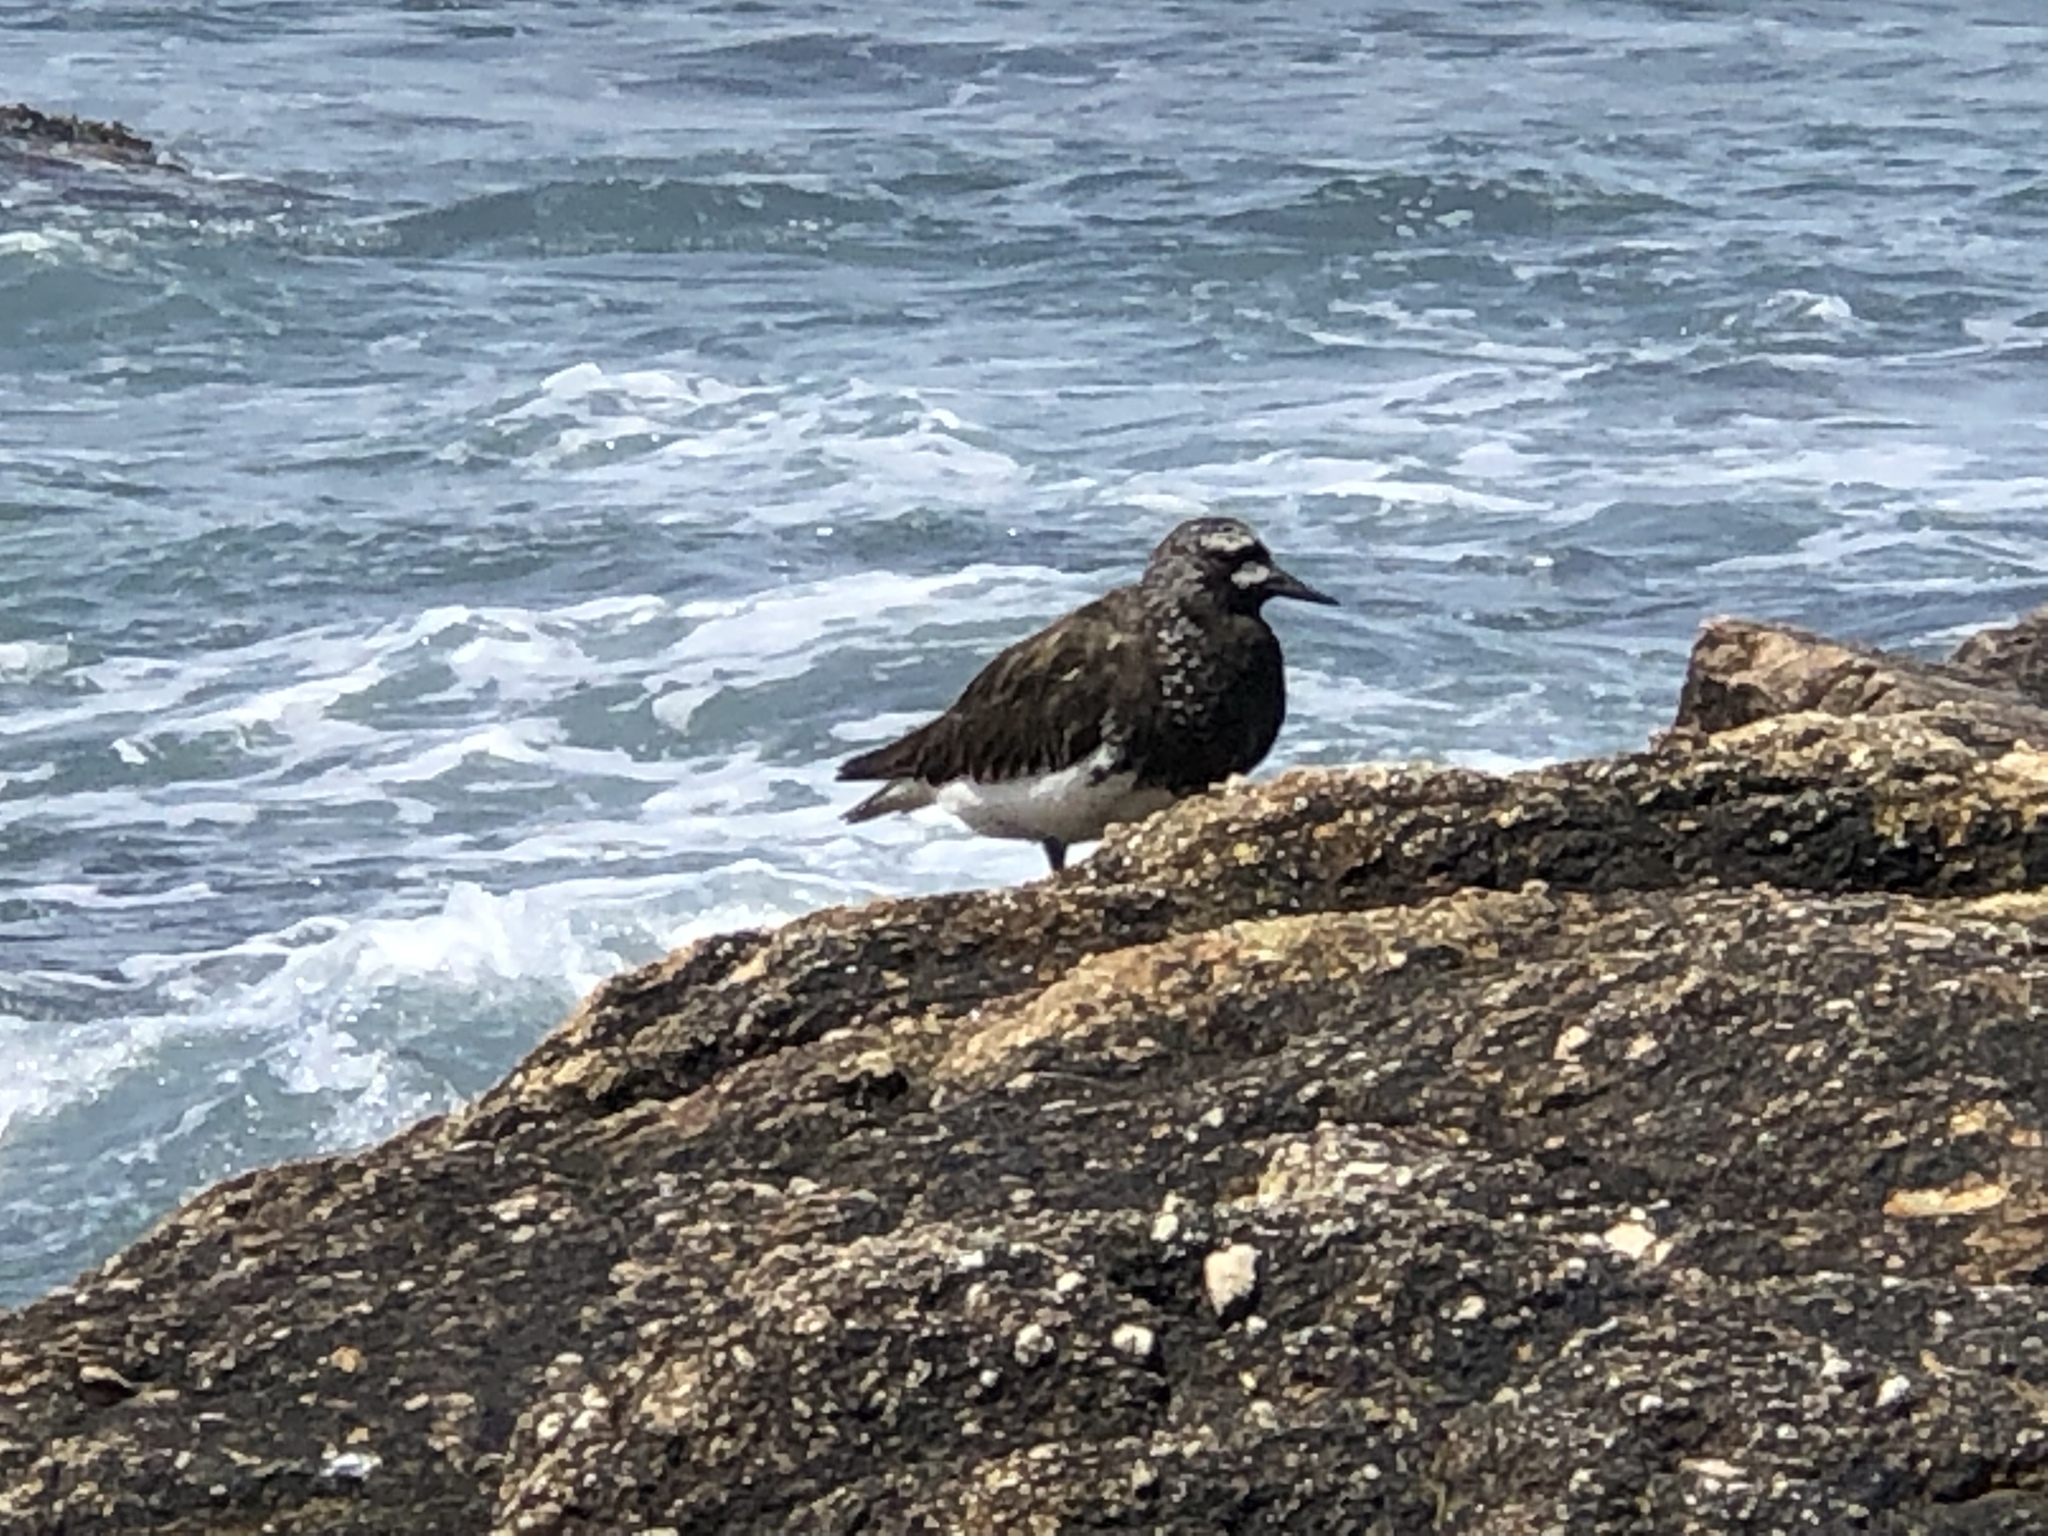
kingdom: Animalia
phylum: Chordata
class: Aves
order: Charadriiformes
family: Scolopacidae
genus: Arenaria
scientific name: Arenaria melanocephala
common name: Black turnstone
